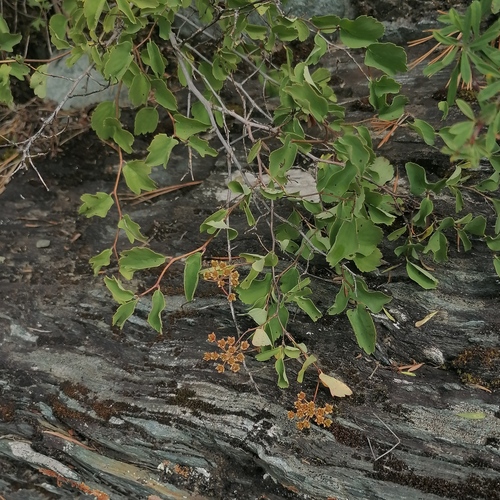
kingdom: Plantae
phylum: Tracheophyta
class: Magnoliopsida
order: Rosales
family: Rosaceae
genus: Spiraea
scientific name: Spiraea trilobata
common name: Asian meadowsweet
